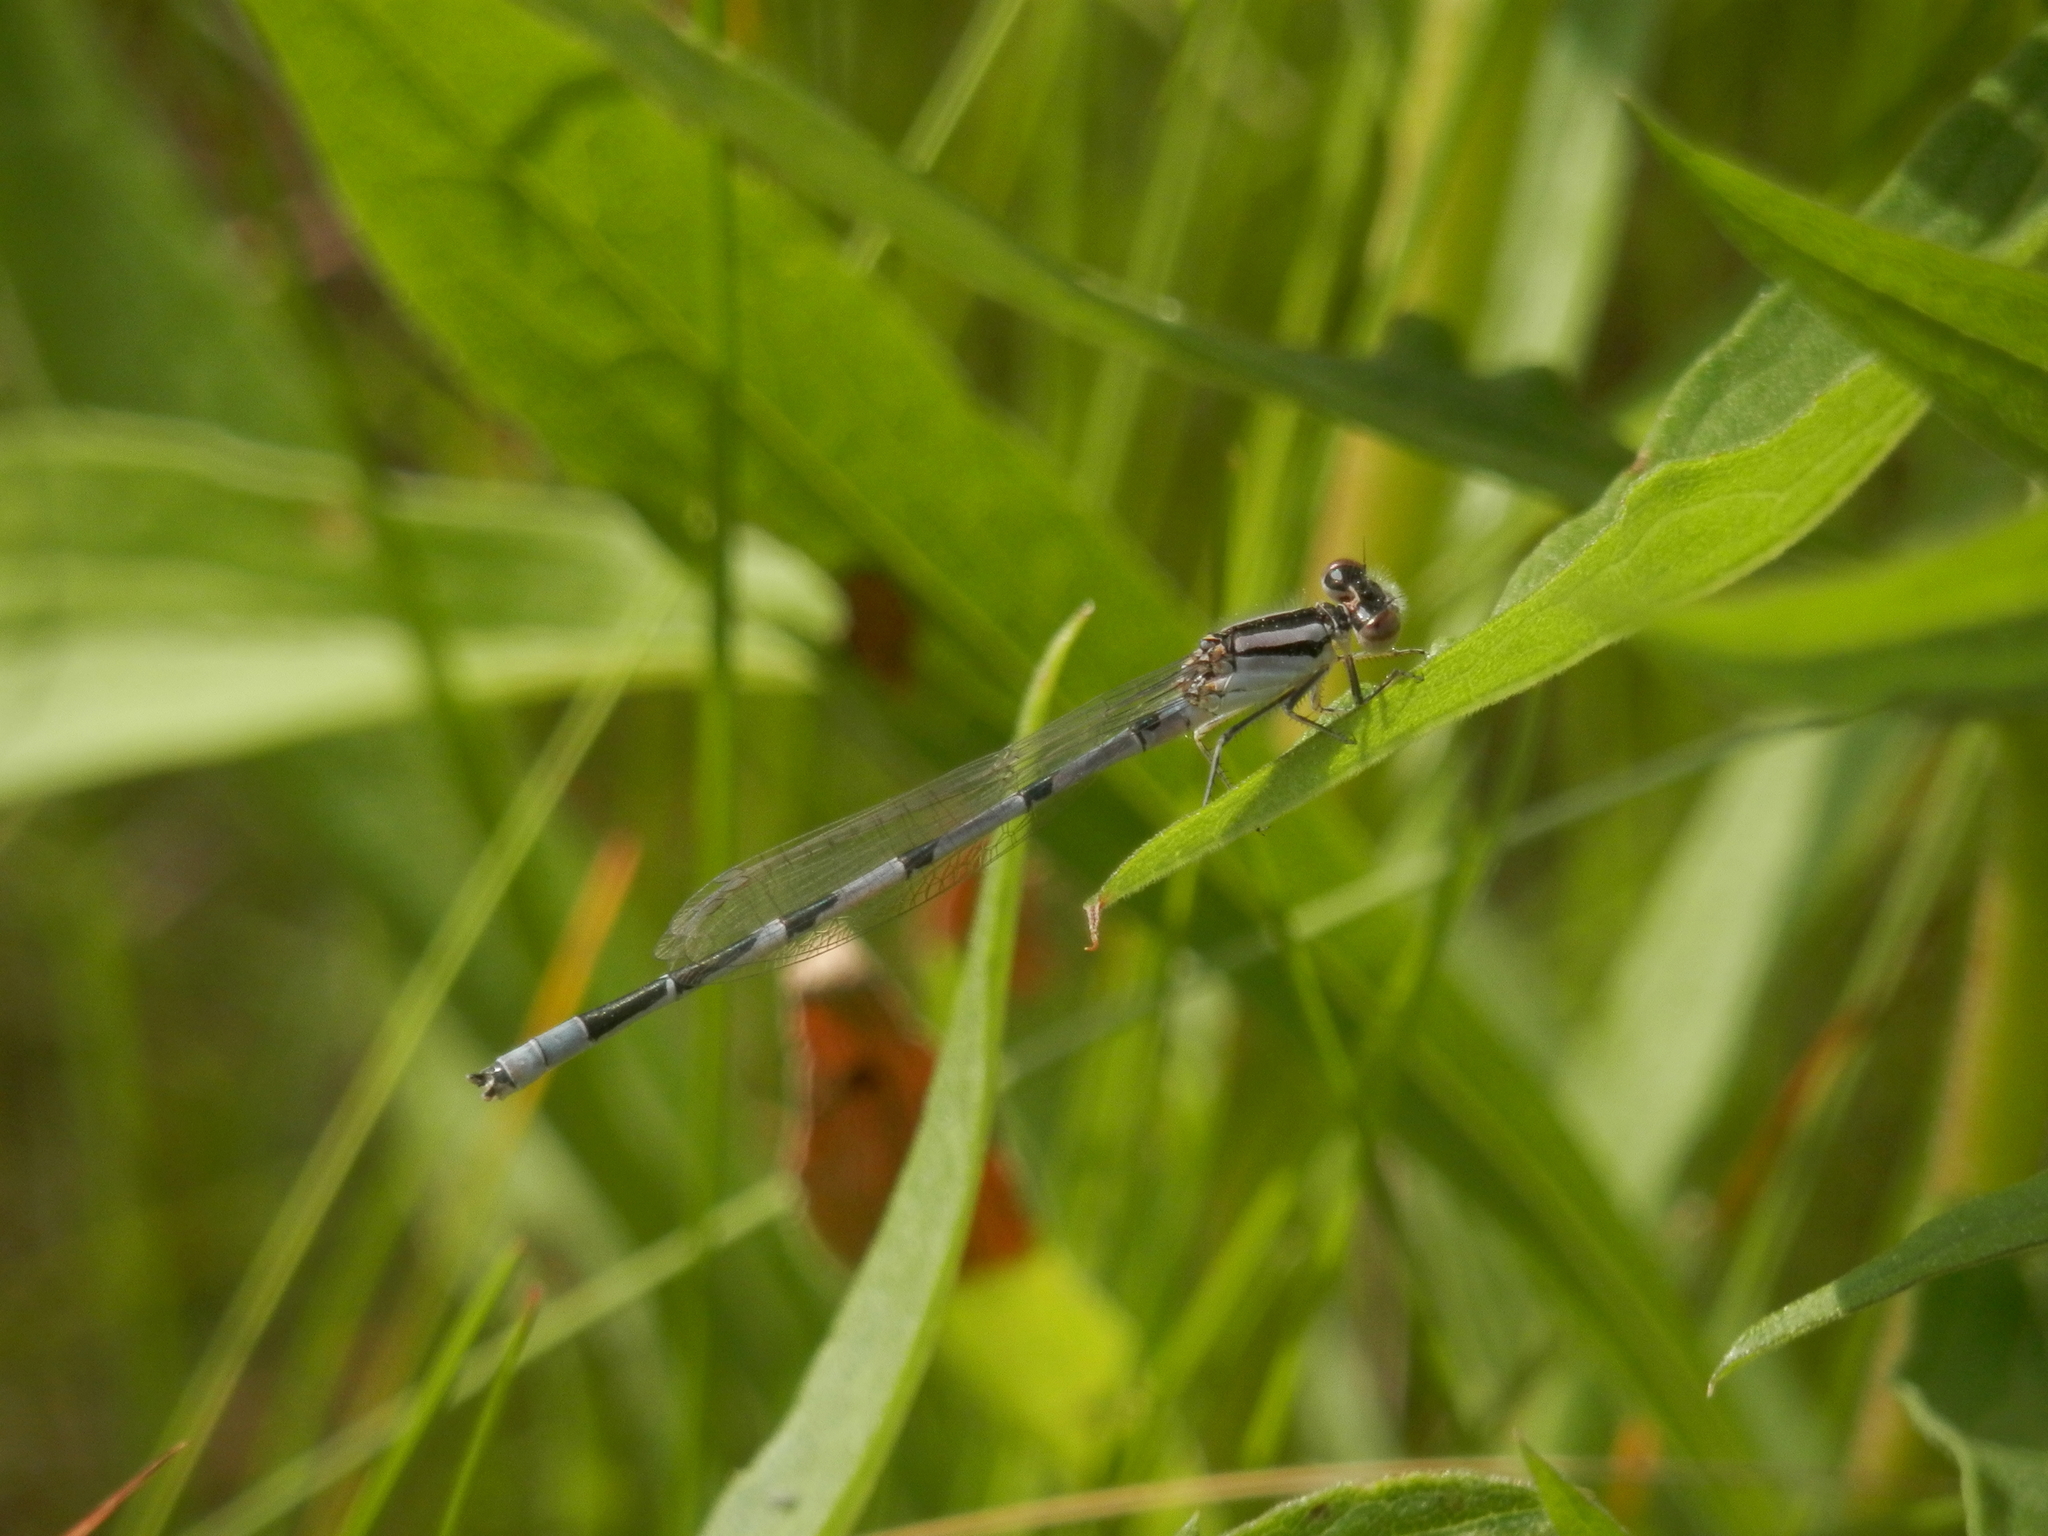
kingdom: Animalia
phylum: Arthropoda
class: Insecta
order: Odonata
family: Coenagrionidae
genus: Enallagma
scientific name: Enallagma civile
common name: Damselfly
